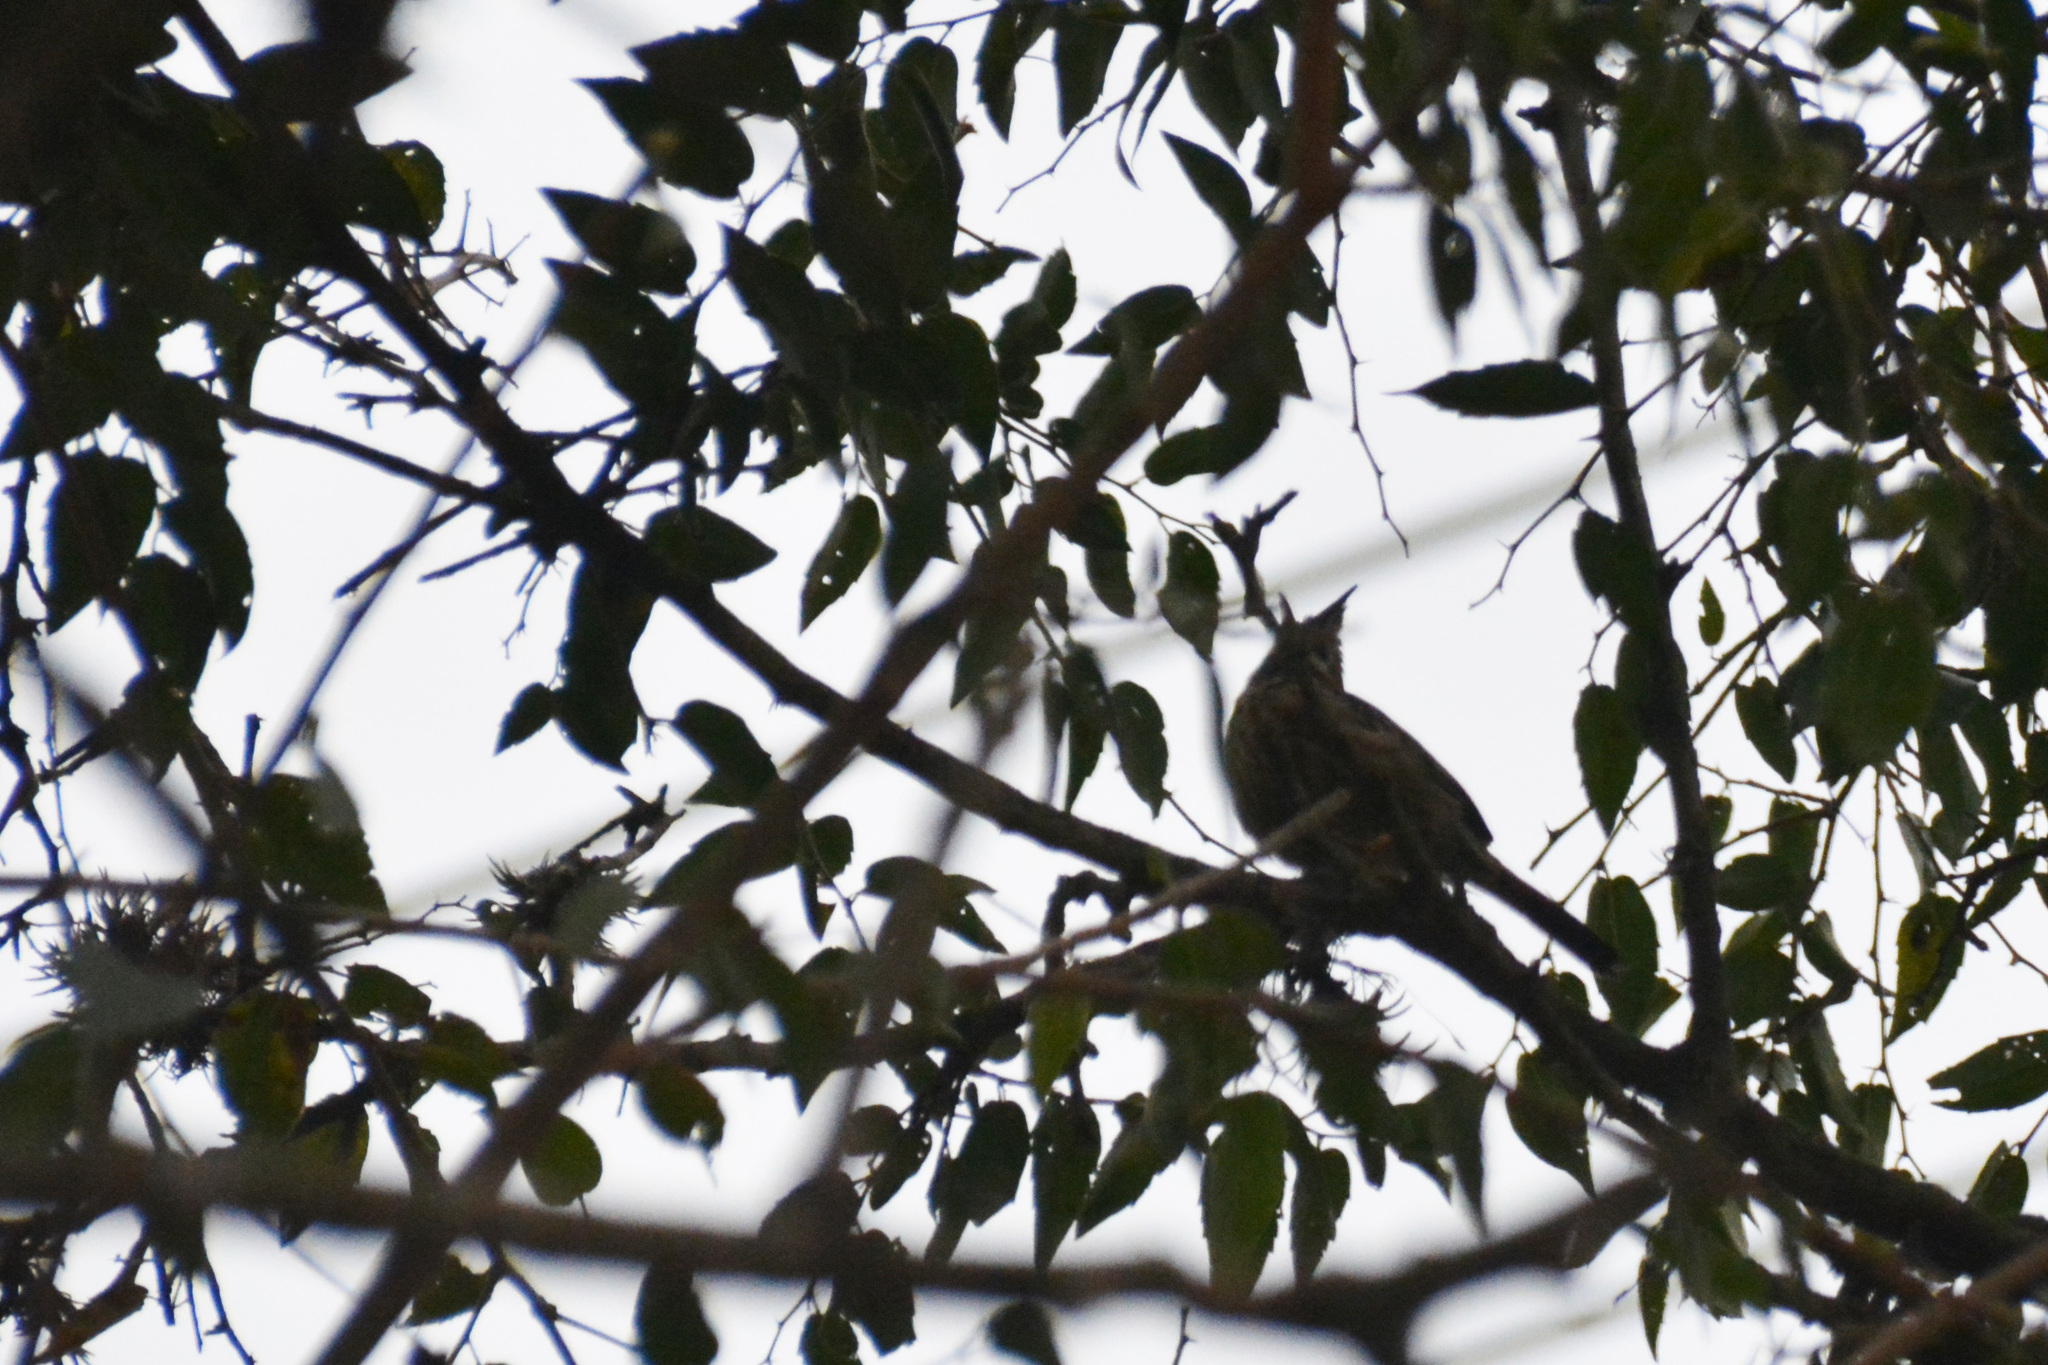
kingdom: Animalia
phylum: Chordata
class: Aves
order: Passeriformes
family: Furnariidae
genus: Coryphistera
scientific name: Coryphistera alaudina
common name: Lark-like brushrunner
